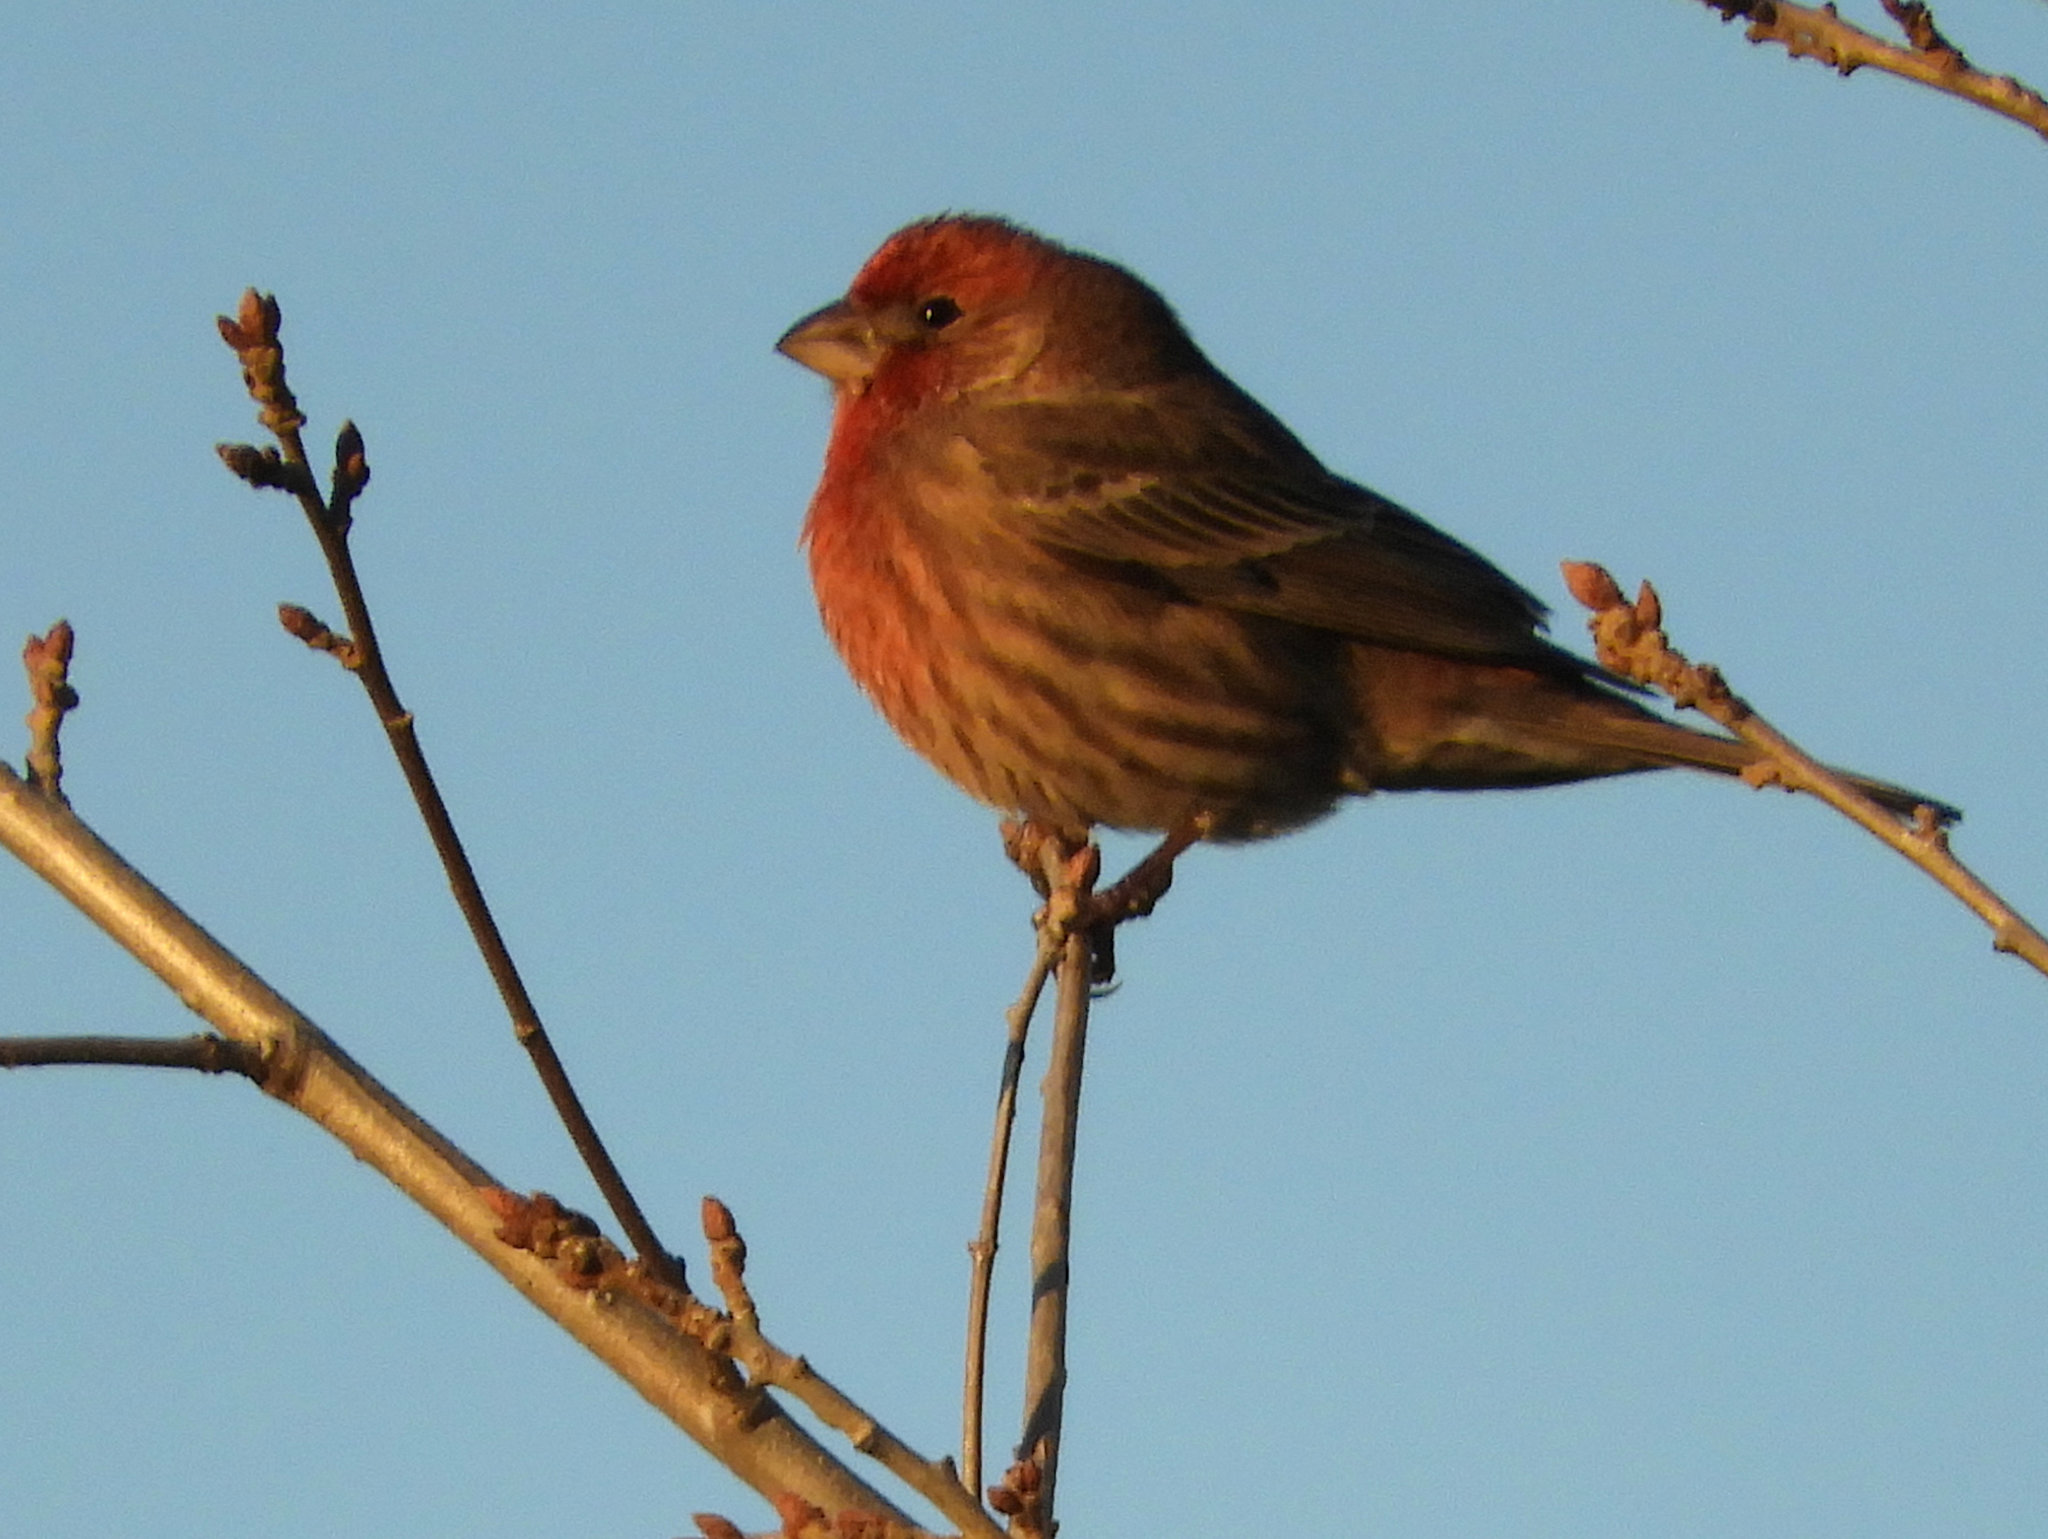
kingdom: Animalia
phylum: Chordata
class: Aves
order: Passeriformes
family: Fringillidae
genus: Haemorhous
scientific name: Haemorhous mexicanus
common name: House finch
